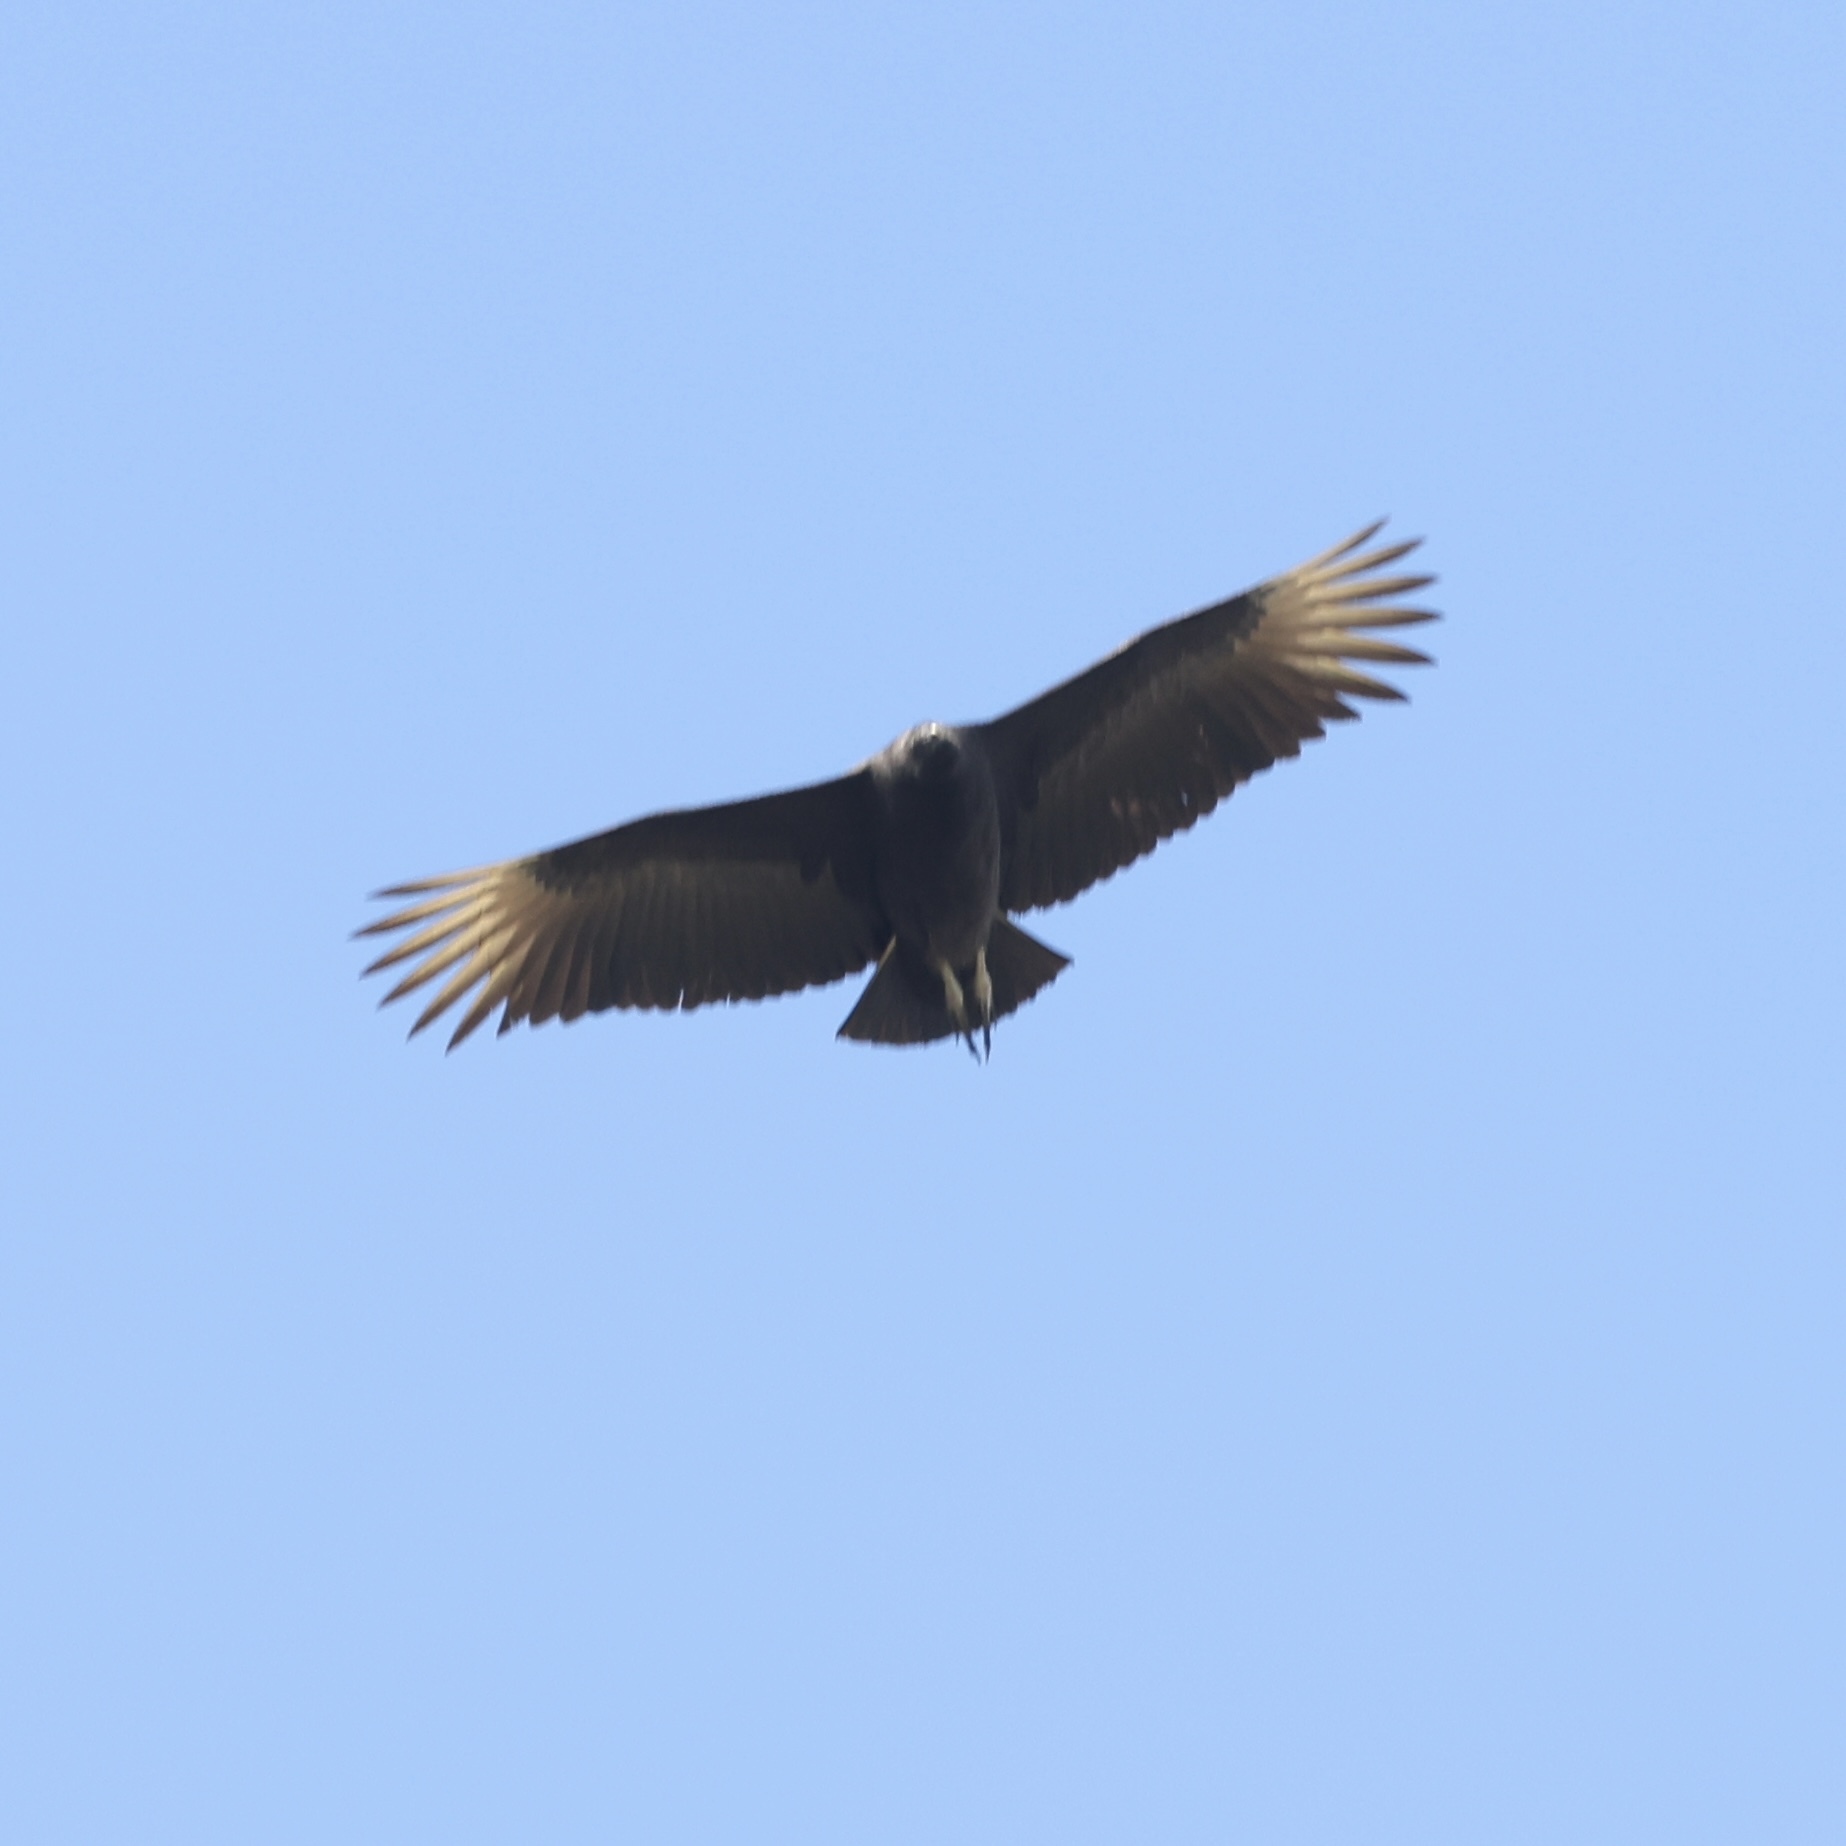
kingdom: Animalia
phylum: Chordata
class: Aves
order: Accipitriformes
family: Cathartidae
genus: Coragyps
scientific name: Coragyps atratus
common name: Black vulture
